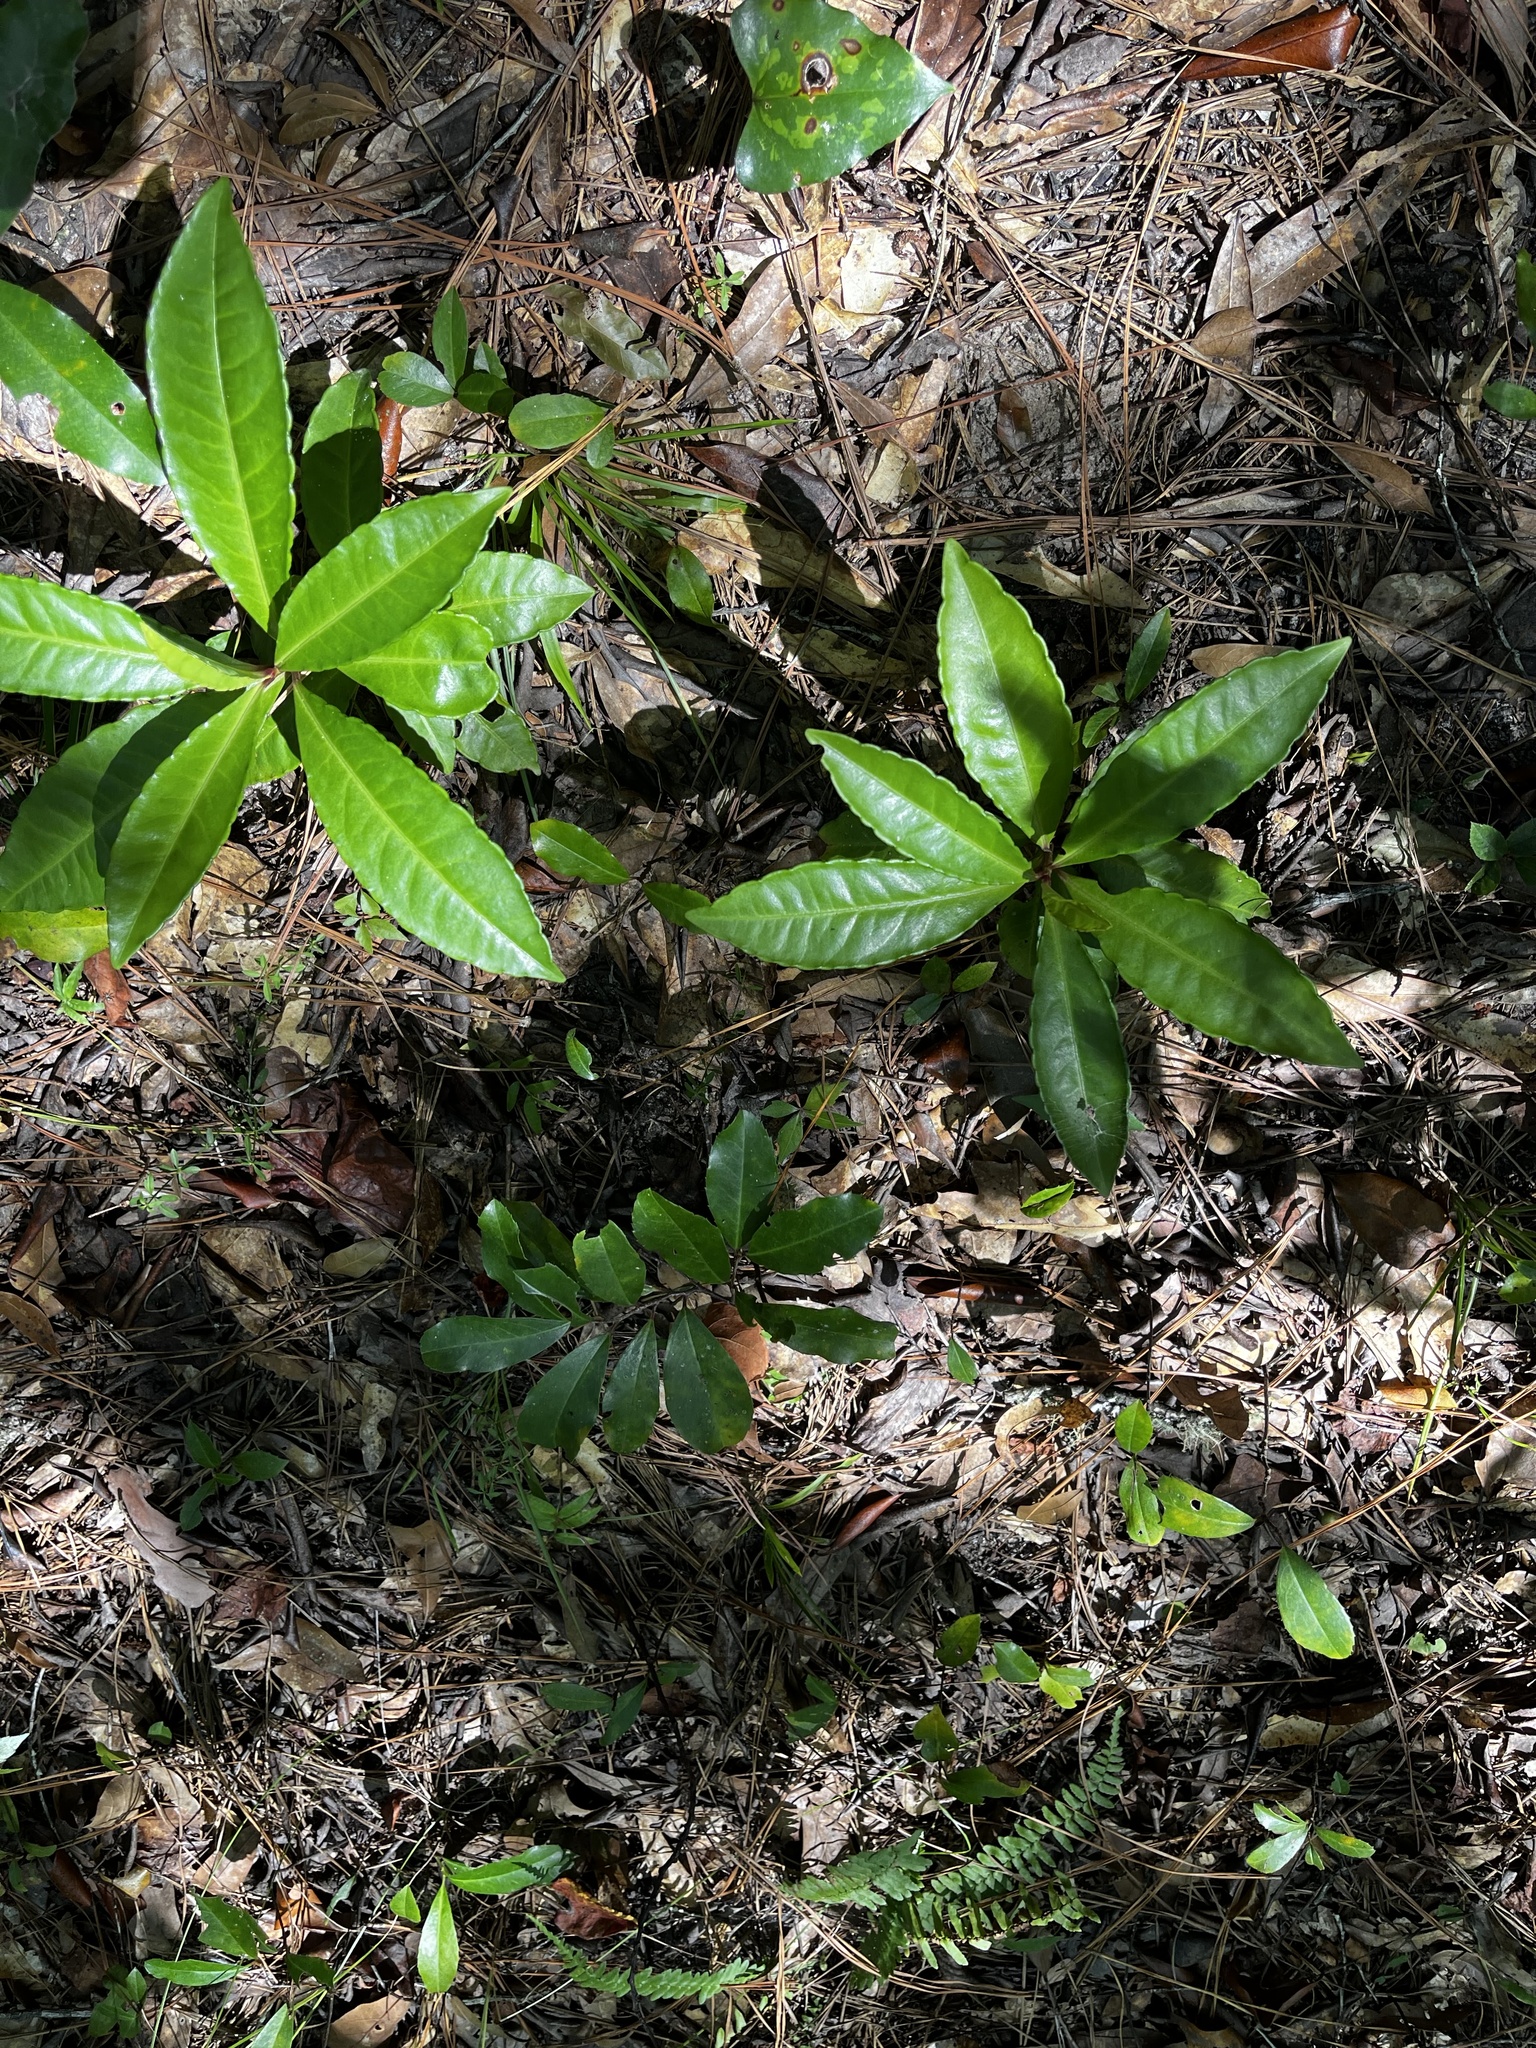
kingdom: Plantae
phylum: Tracheophyta
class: Magnoliopsida
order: Ericales
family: Primulaceae
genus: Ardisia
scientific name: Ardisia crenata
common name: Hen's eyes
